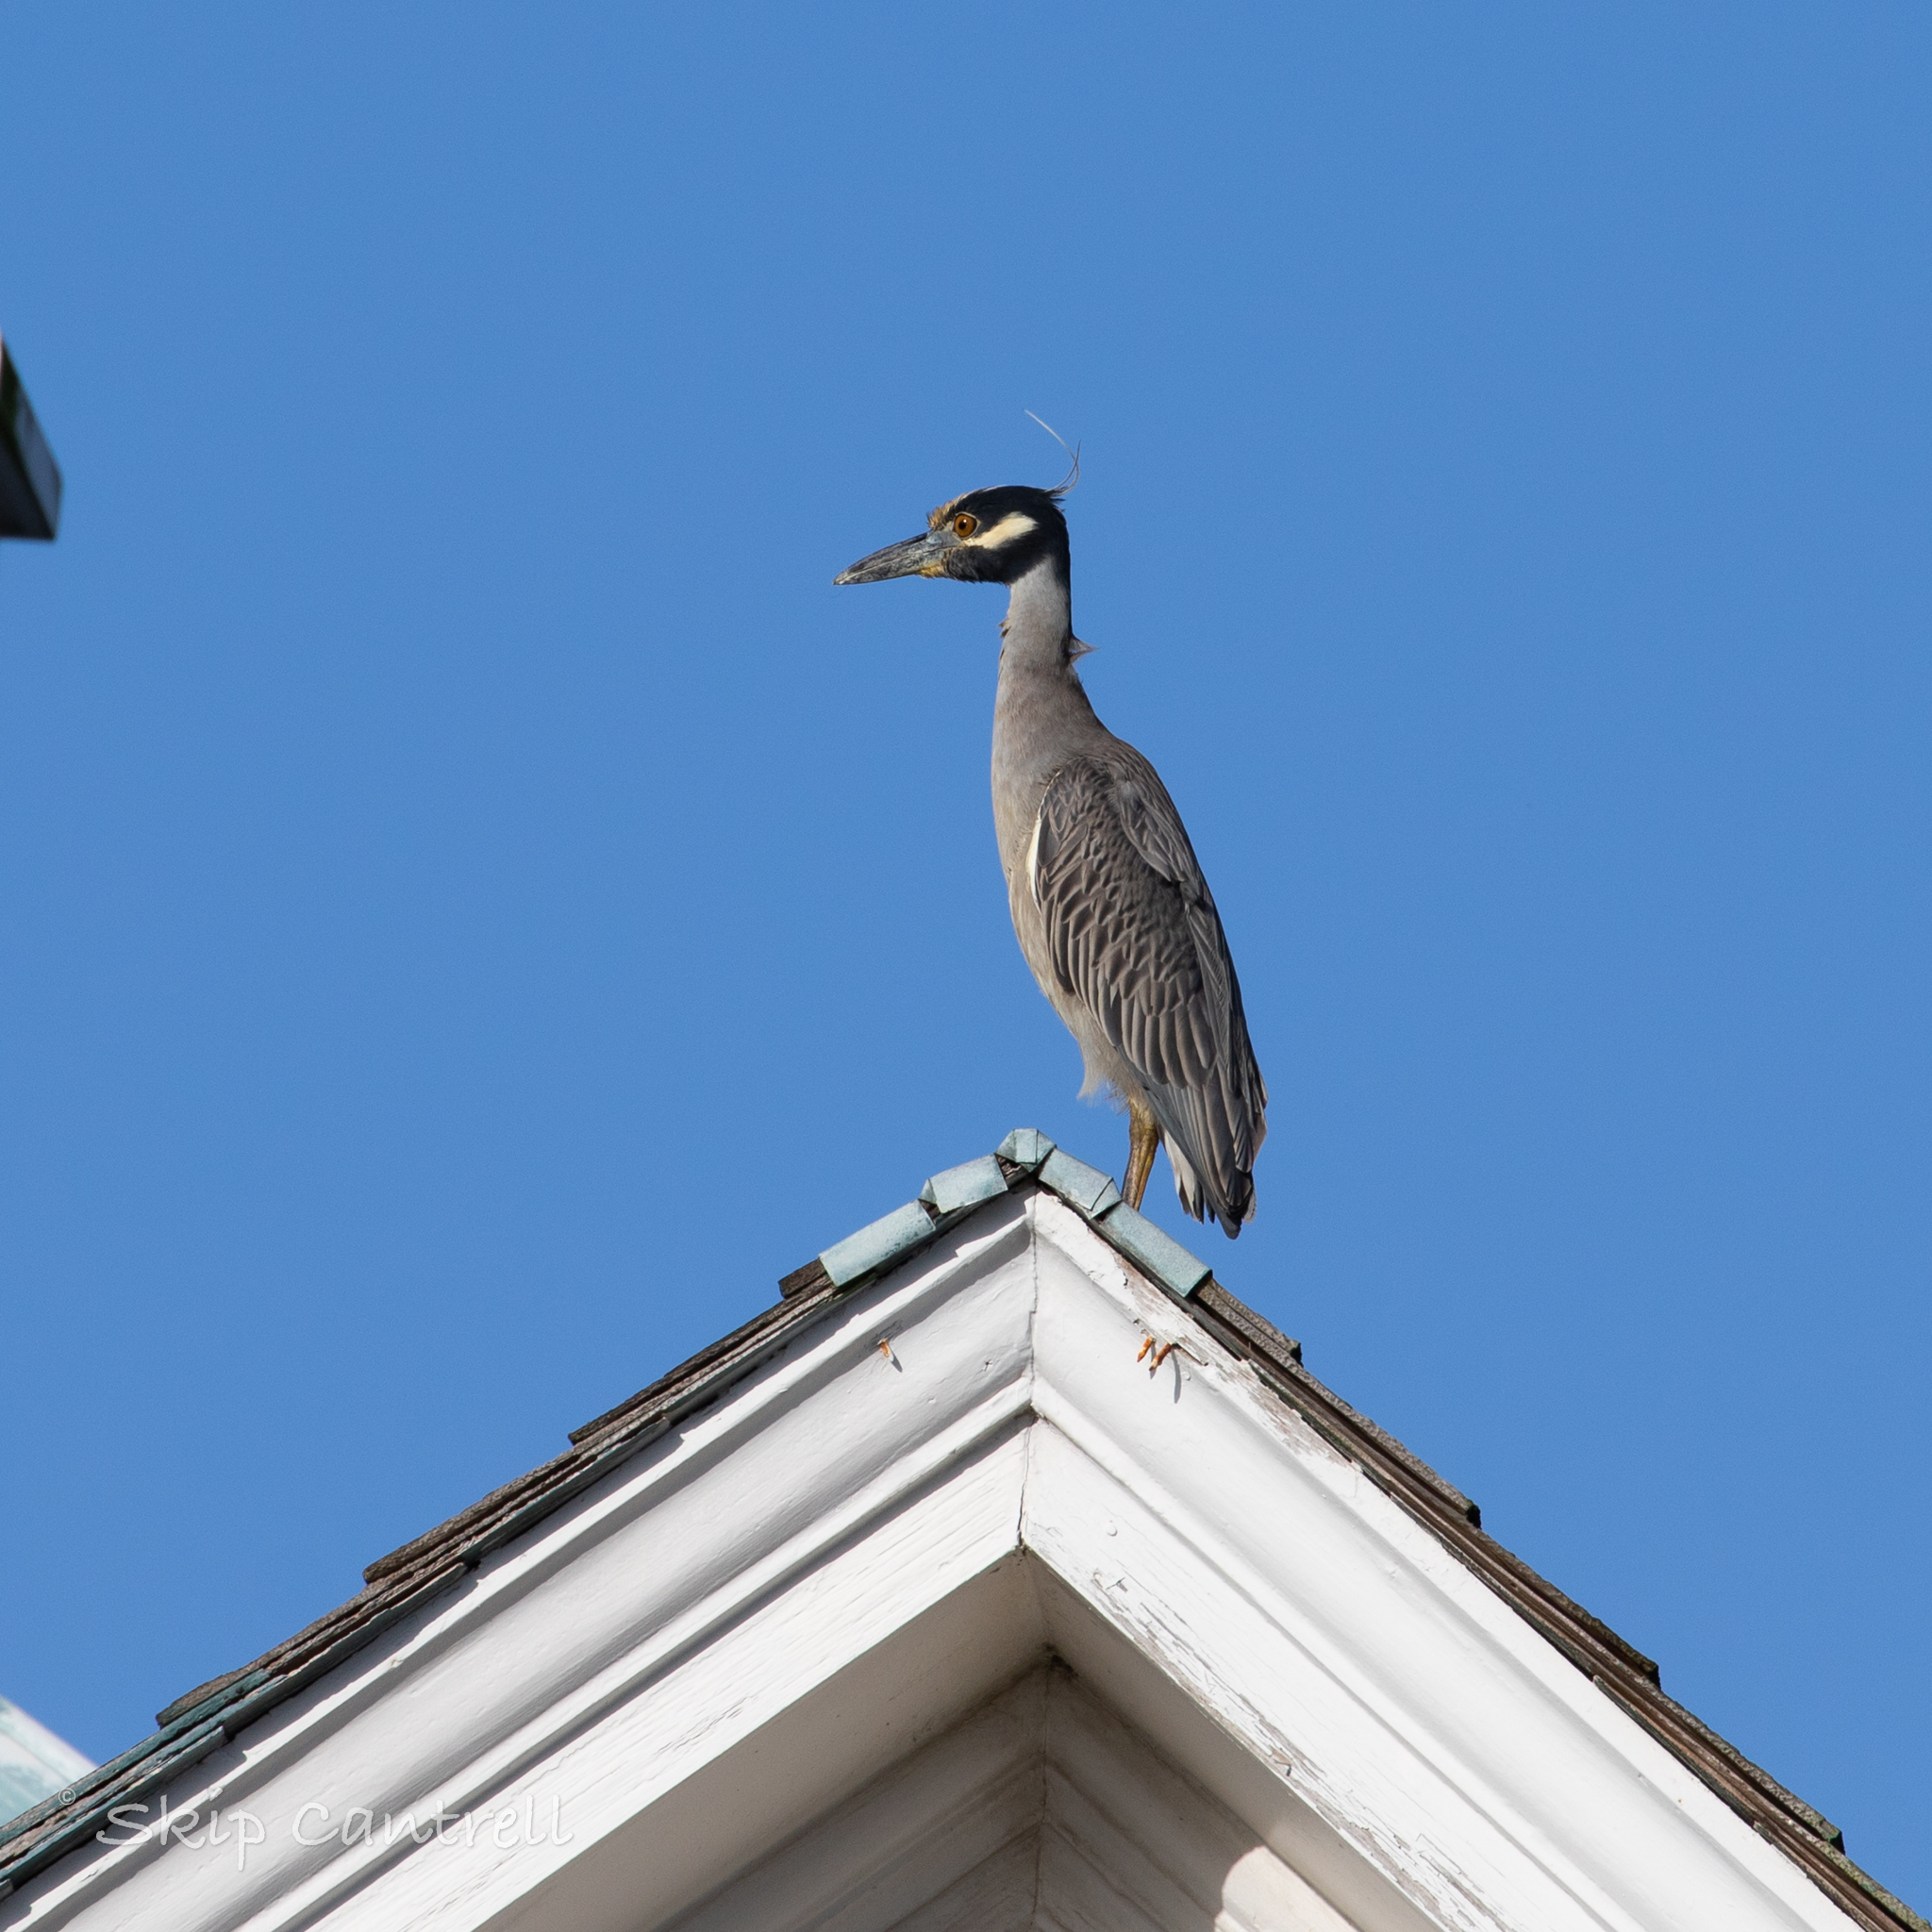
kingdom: Animalia
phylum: Chordata
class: Aves
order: Pelecaniformes
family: Ardeidae
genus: Nyctanassa
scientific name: Nyctanassa violacea
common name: Yellow-crowned night heron
